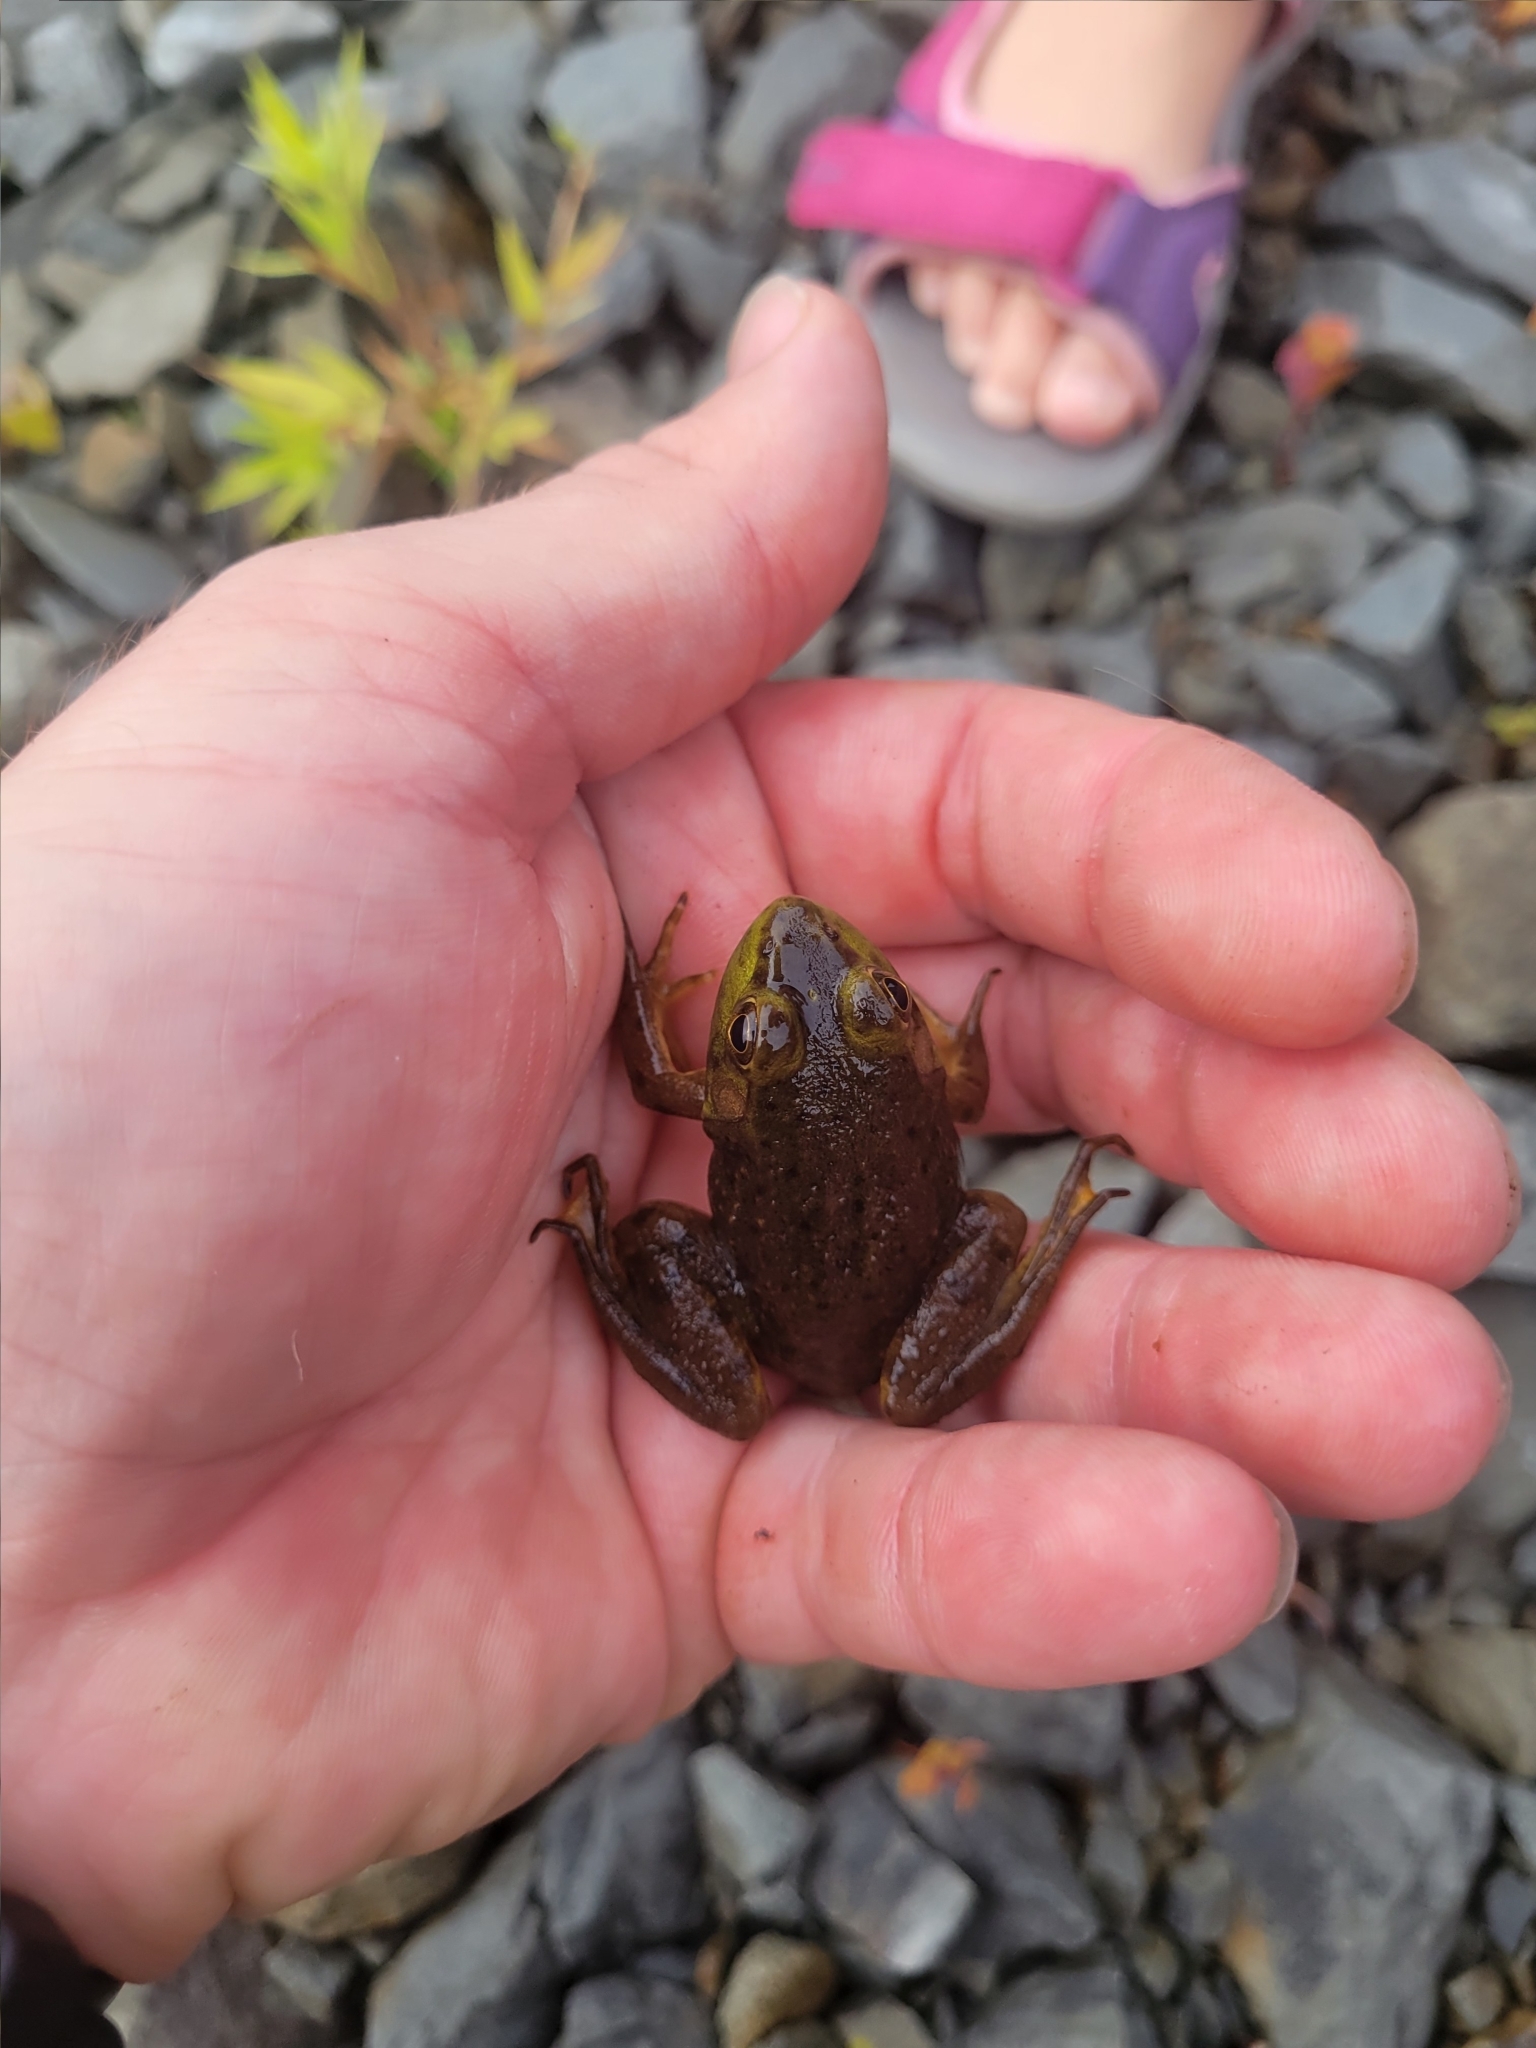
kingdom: Animalia
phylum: Chordata
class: Amphibia
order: Anura
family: Ranidae
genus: Lithobates
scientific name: Lithobates catesbeianus
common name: American bullfrog
